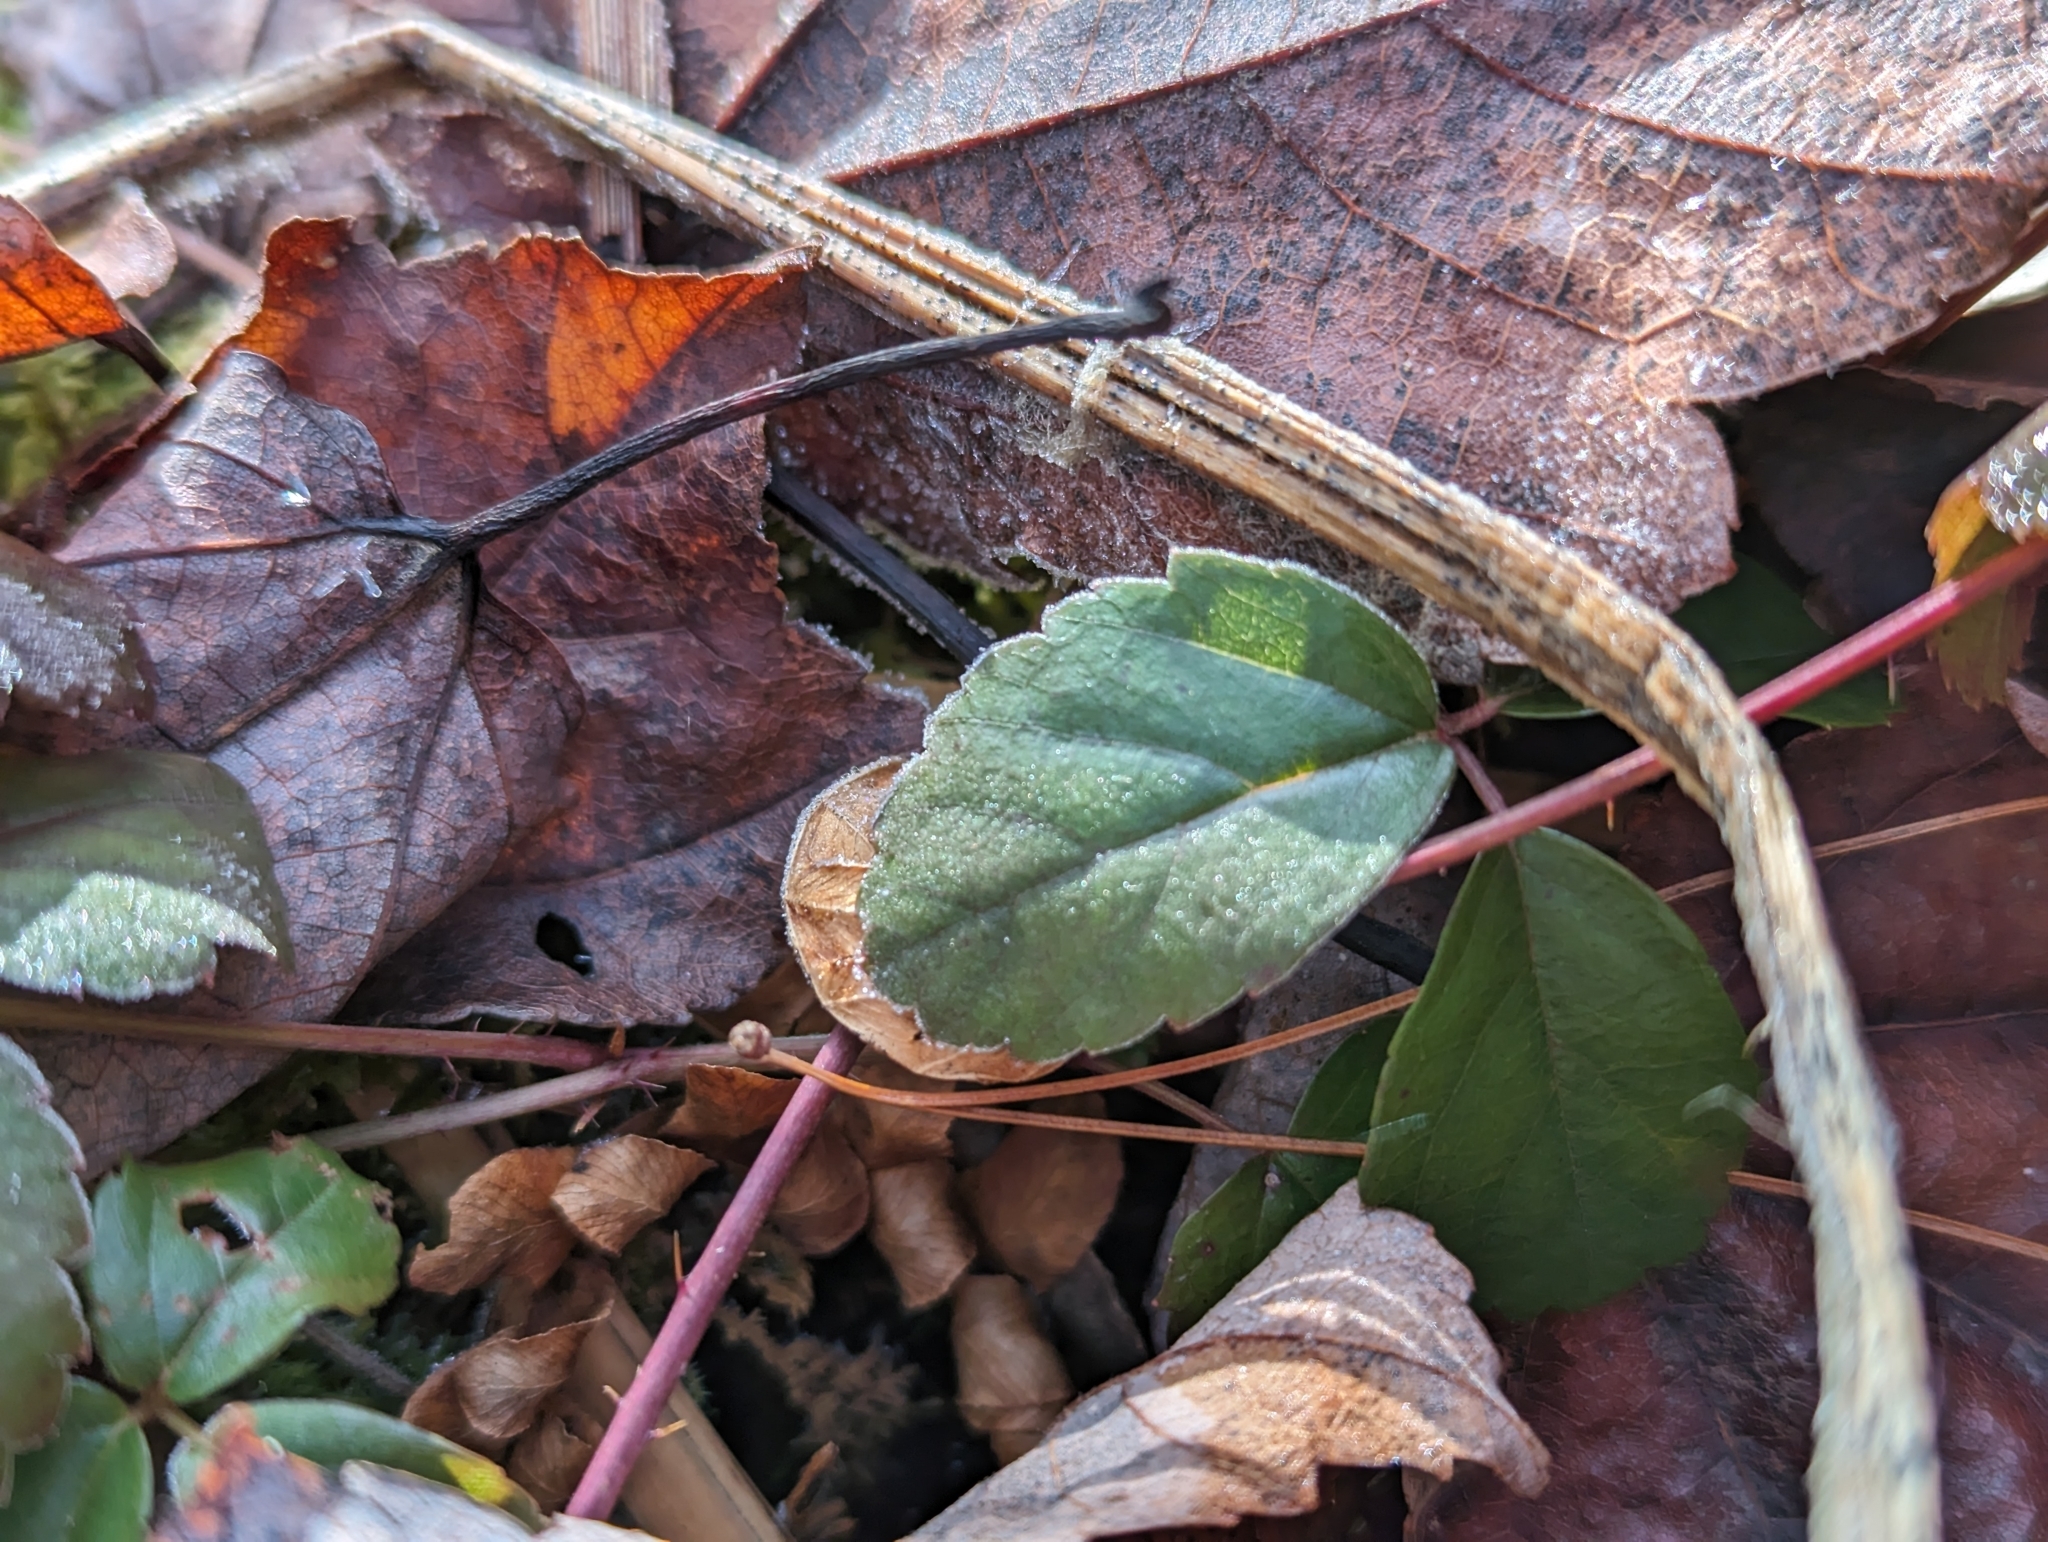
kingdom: Plantae
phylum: Tracheophyta
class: Magnoliopsida
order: Rosales
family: Rosaceae
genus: Rubus
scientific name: Rubus hispidus
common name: Running blackberry
